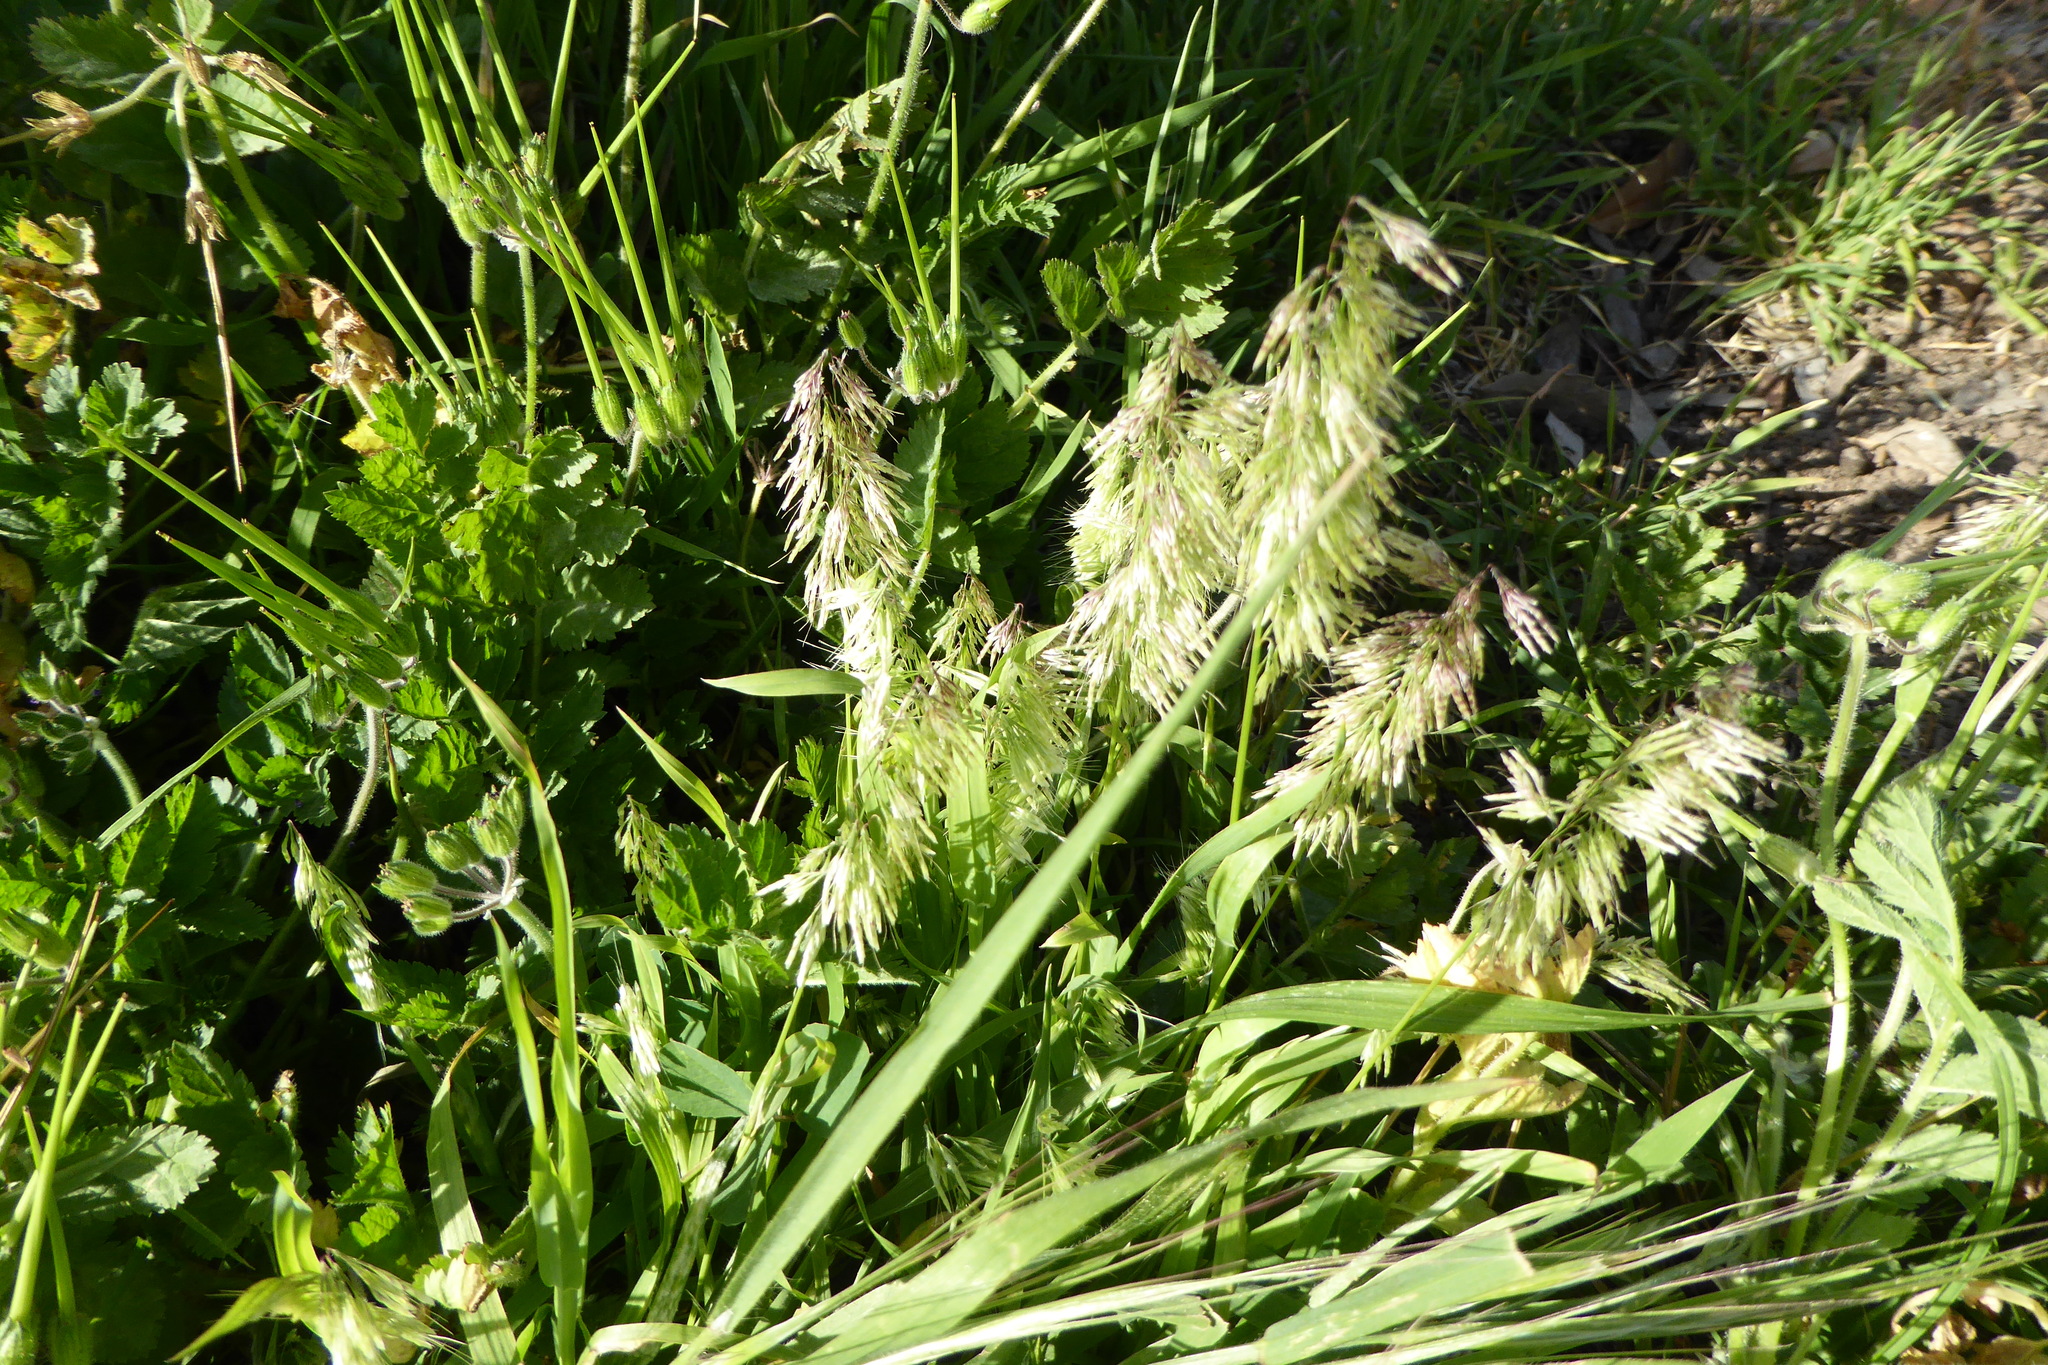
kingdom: Plantae
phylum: Tracheophyta
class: Liliopsida
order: Poales
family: Poaceae
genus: Lamarckia
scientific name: Lamarckia aurea
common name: Golden dog's-tail
